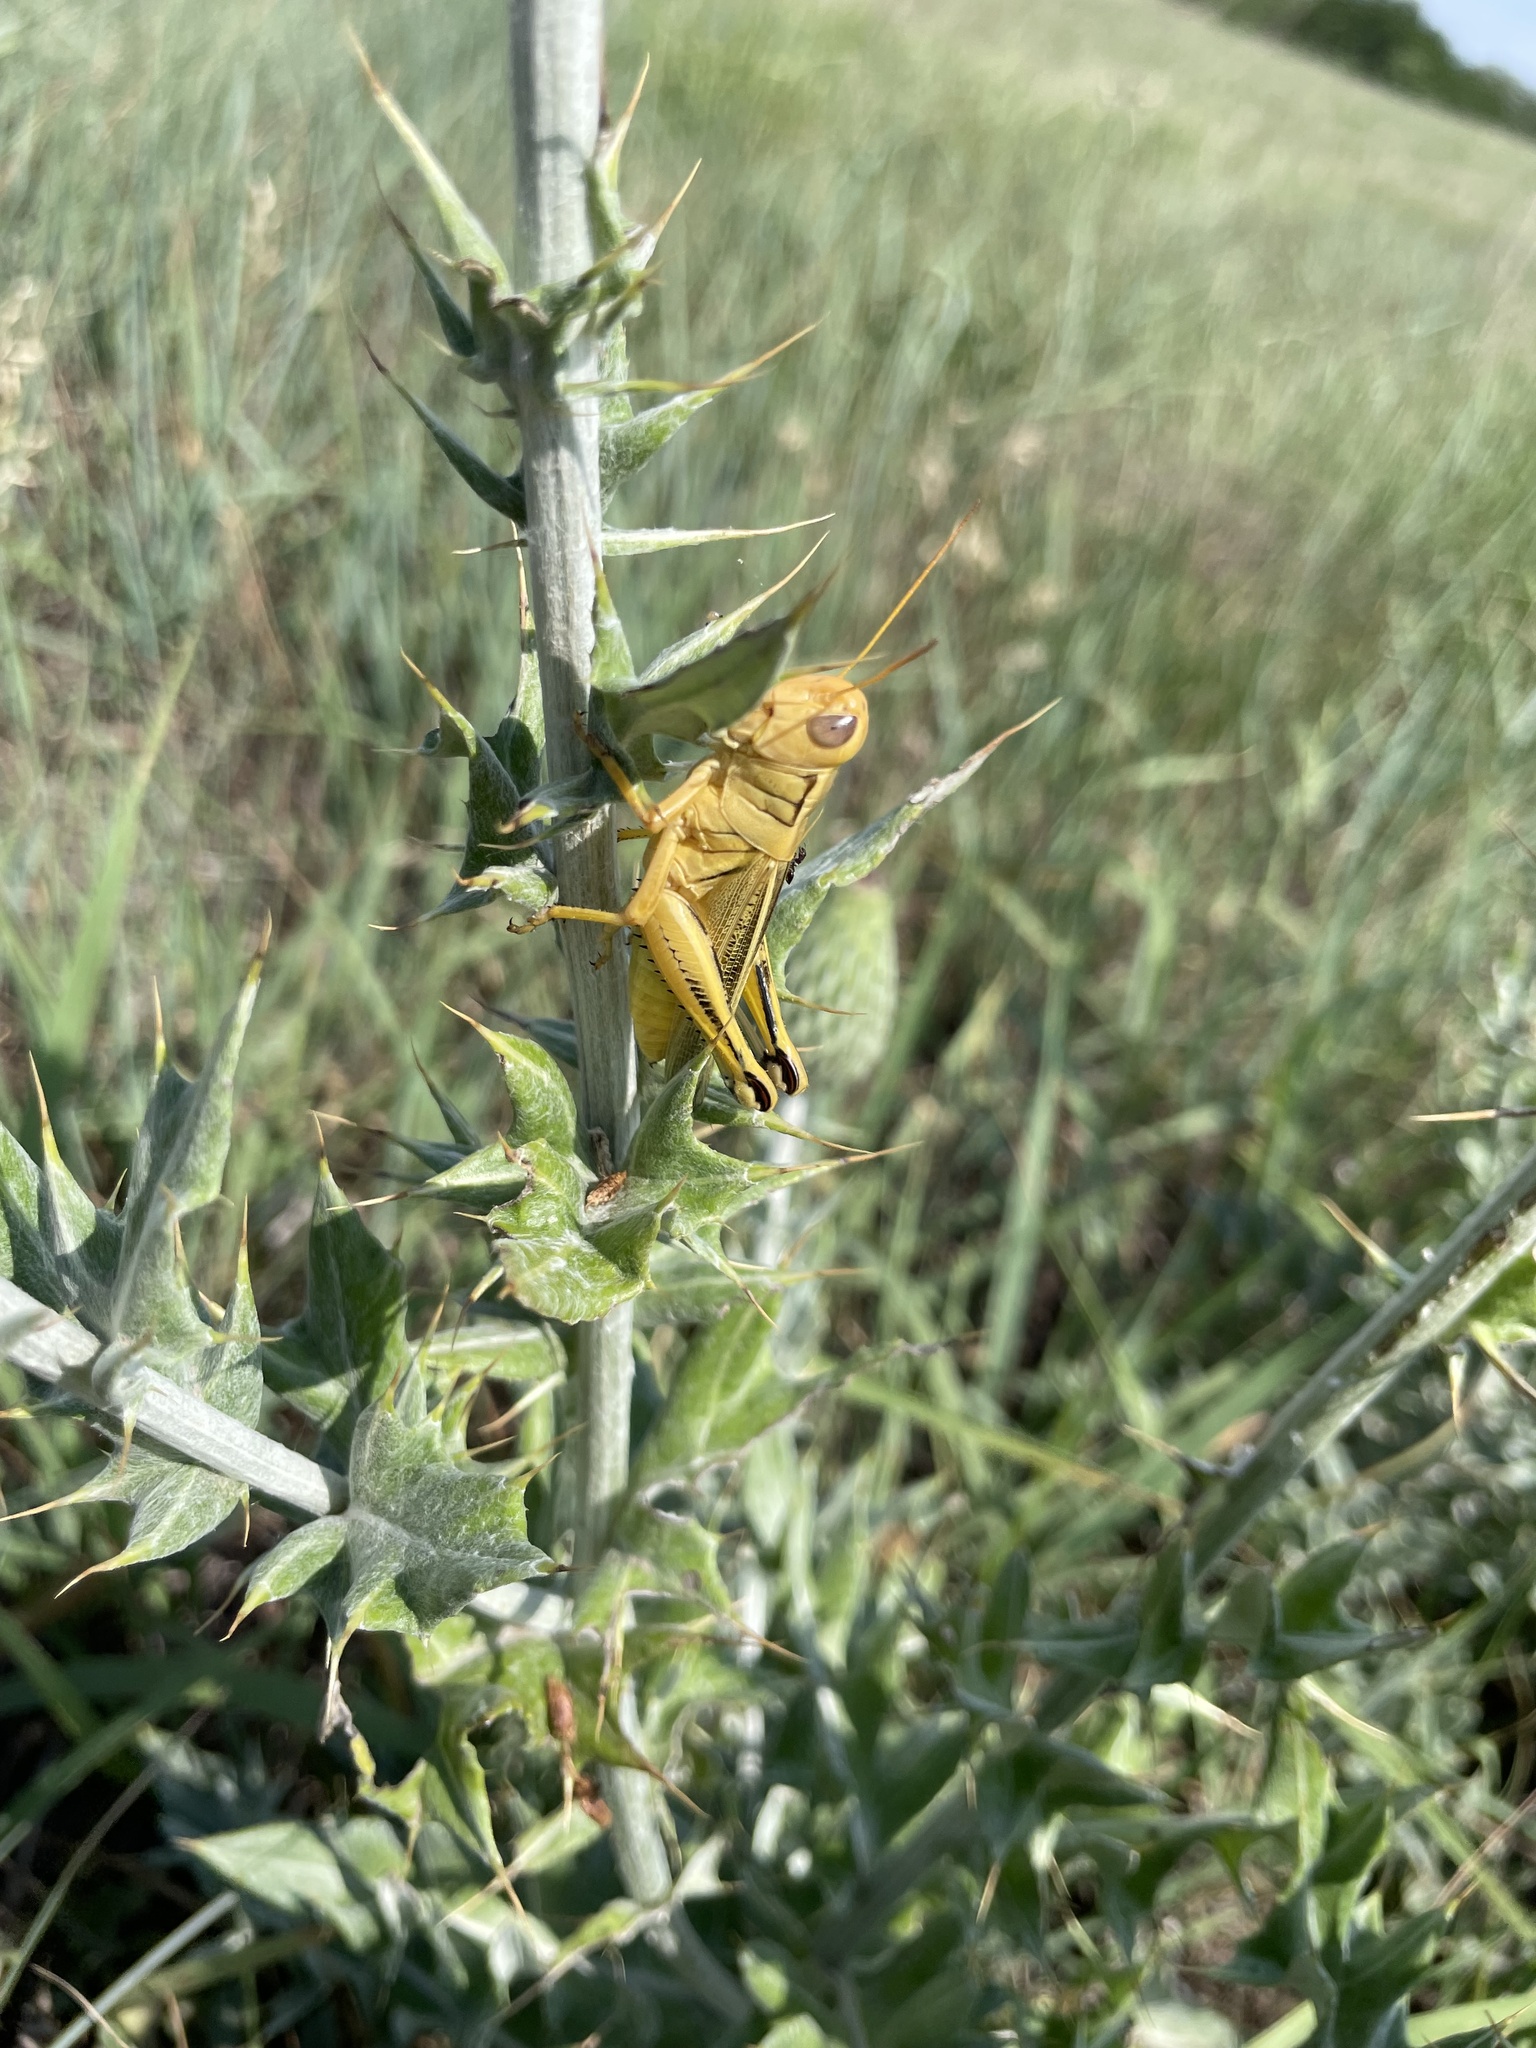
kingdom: Animalia
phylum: Arthropoda
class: Insecta
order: Orthoptera
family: Acrididae
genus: Melanoplus
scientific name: Melanoplus differentialis
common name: Differential grasshopper
